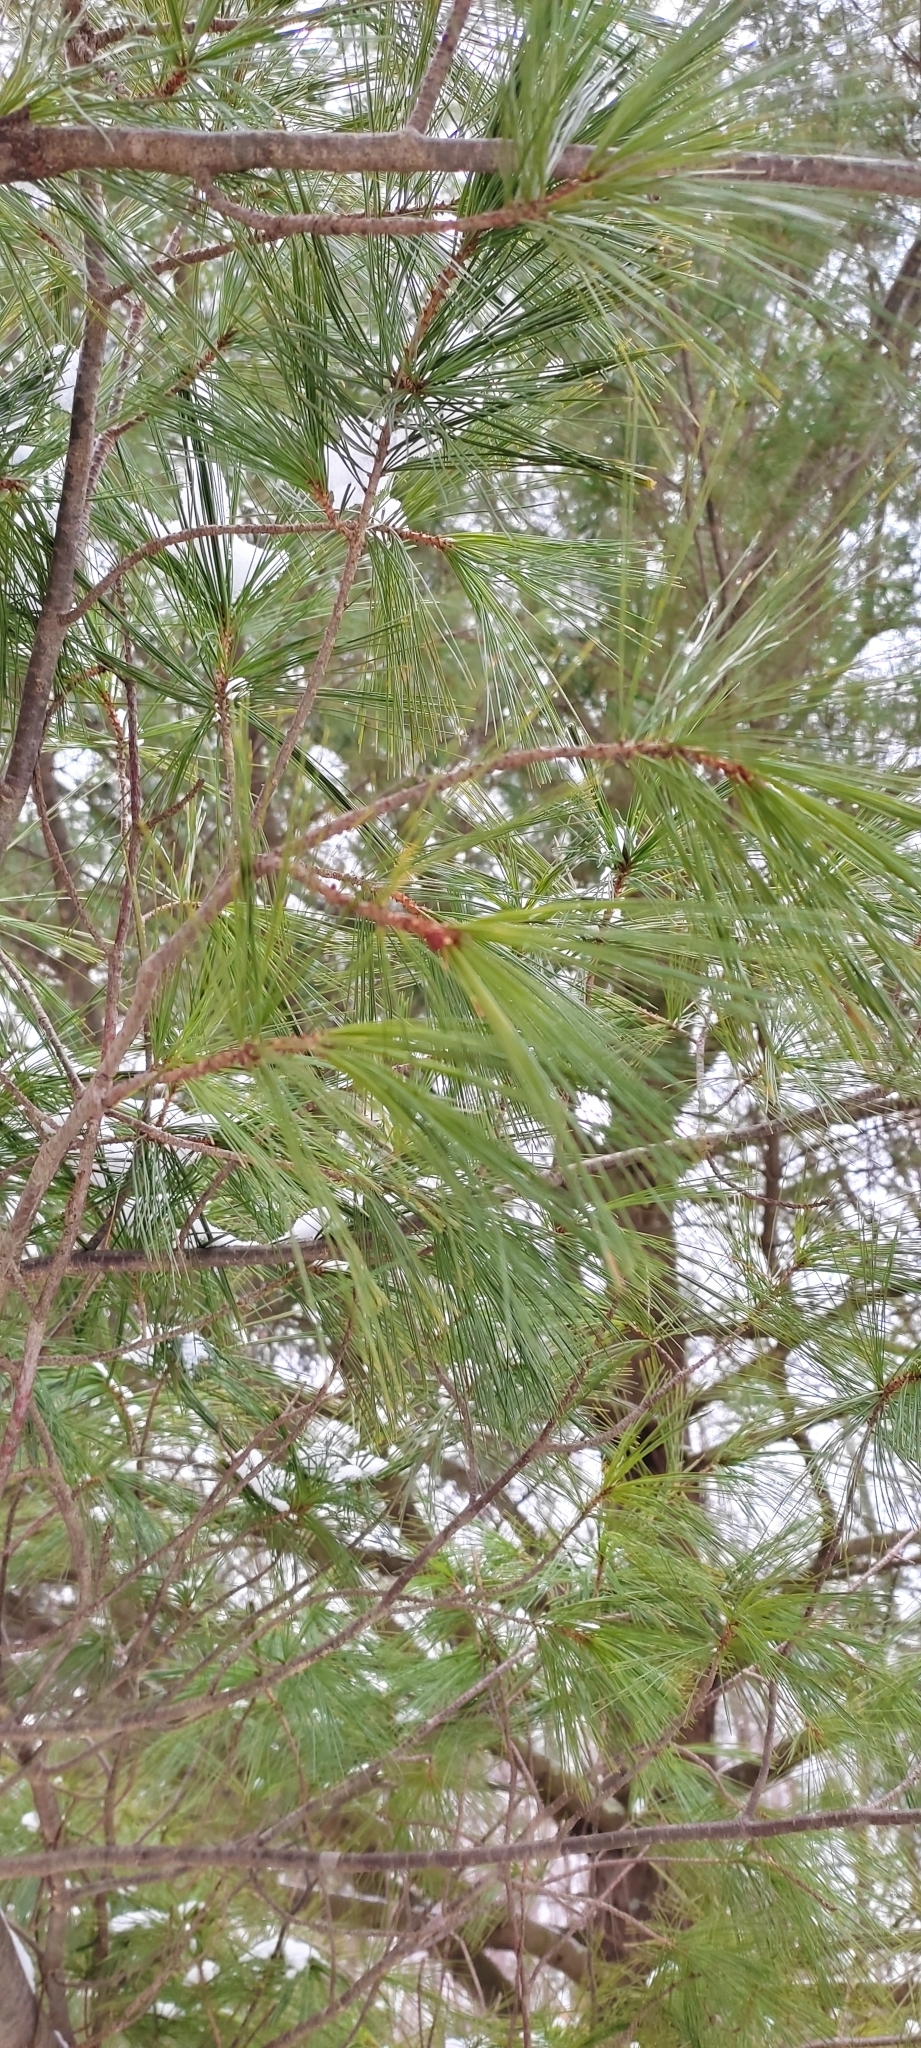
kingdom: Plantae
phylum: Tracheophyta
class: Pinopsida
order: Pinales
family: Pinaceae
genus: Pinus
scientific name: Pinus strobus
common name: Weymouth pine
